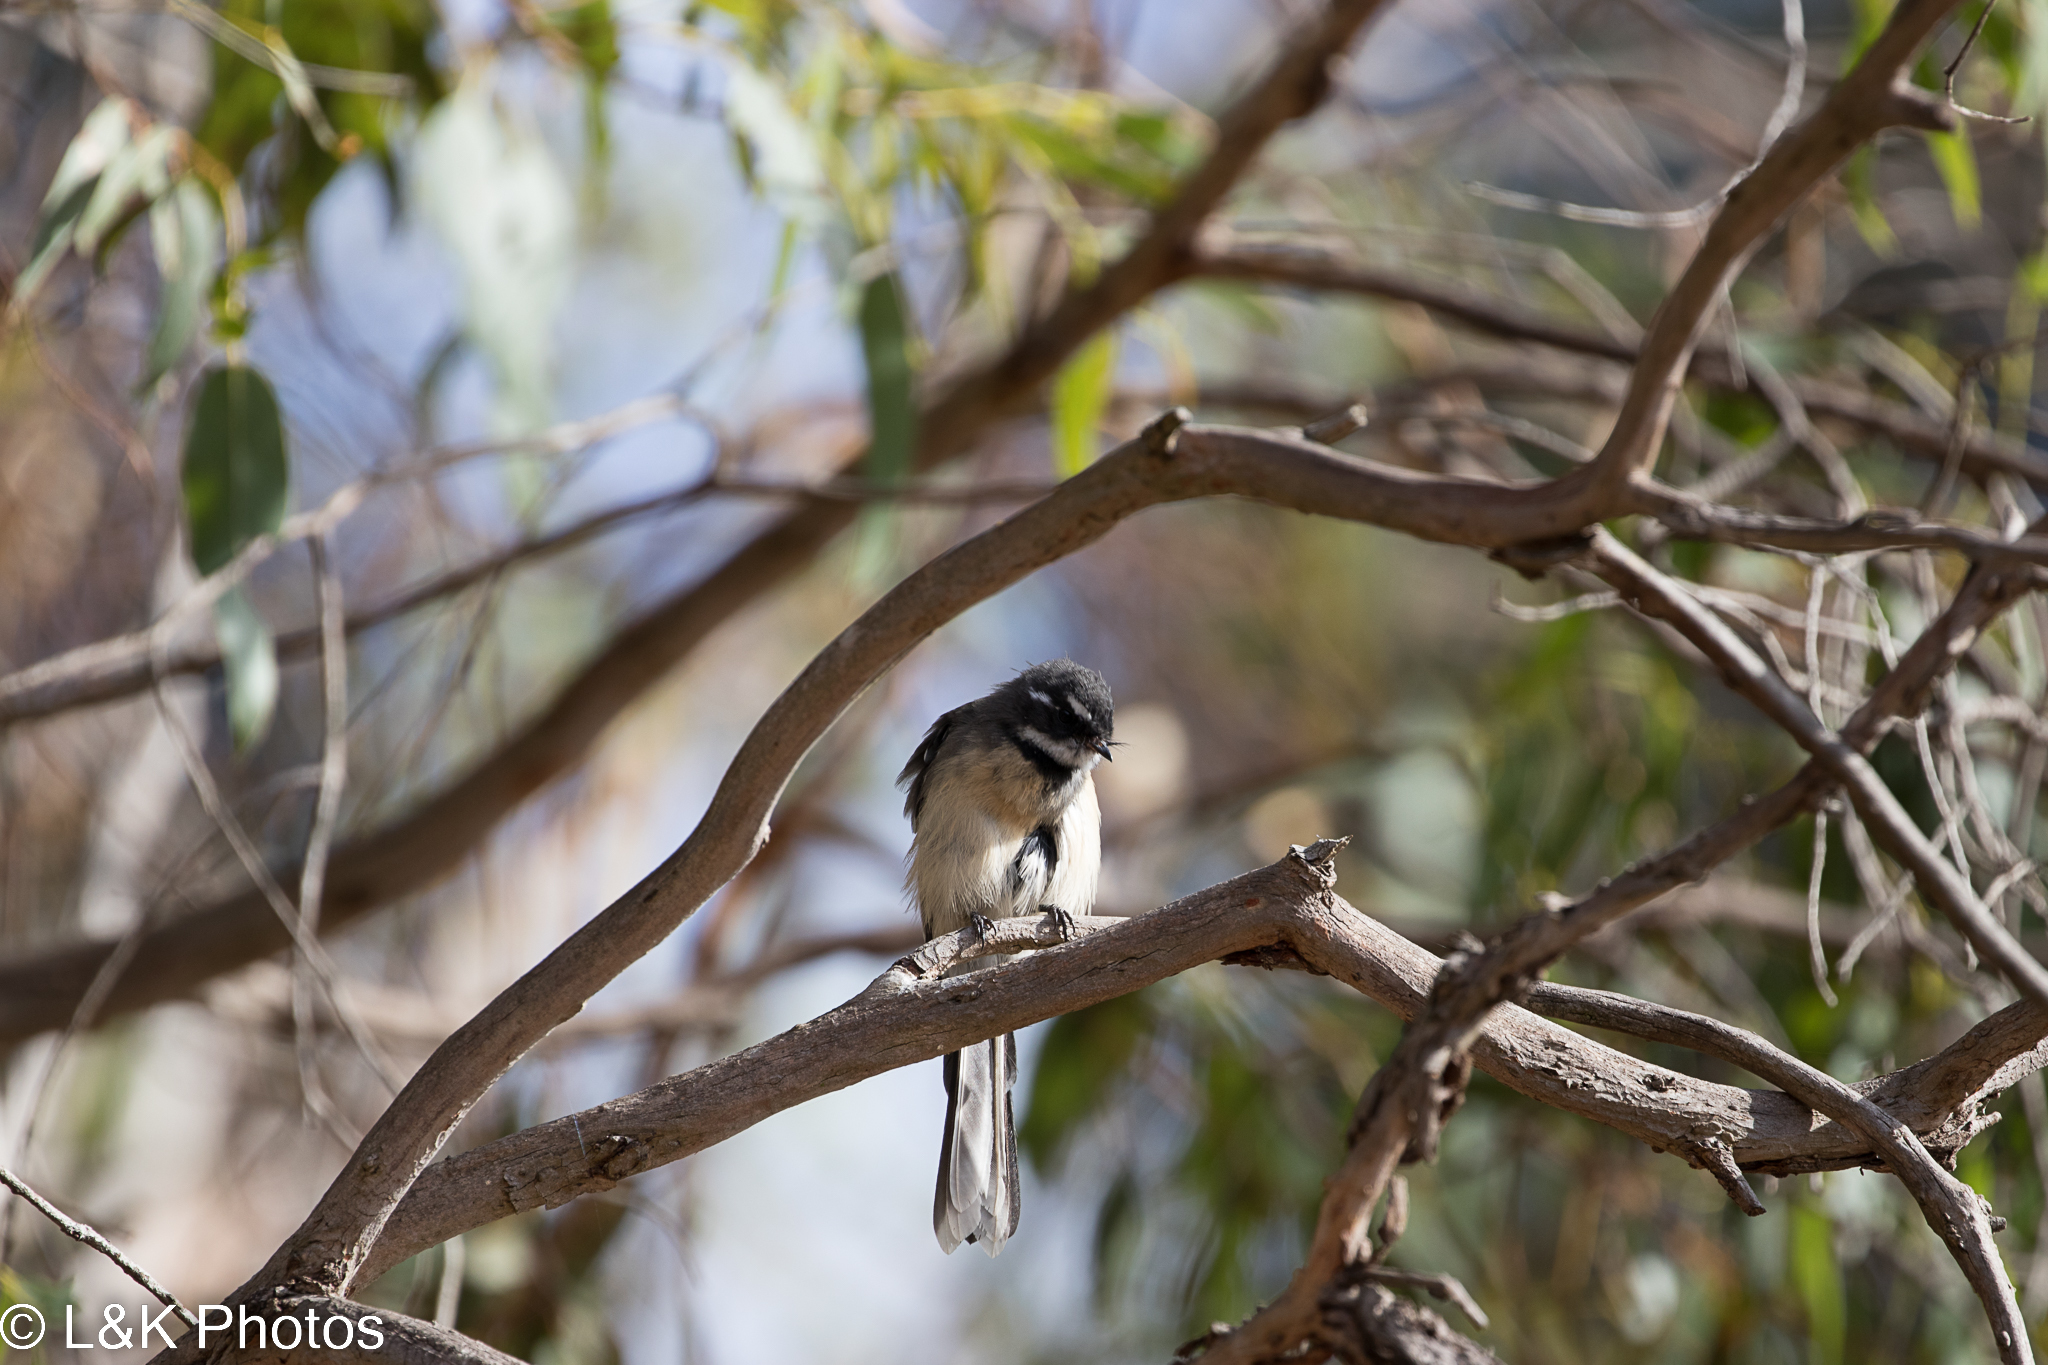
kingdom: Animalia
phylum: Chordata
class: Aves
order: Passeriformes
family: Rhipiduridae
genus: Rhipidura
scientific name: Rhipidura albiscapa
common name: Grey fantail
